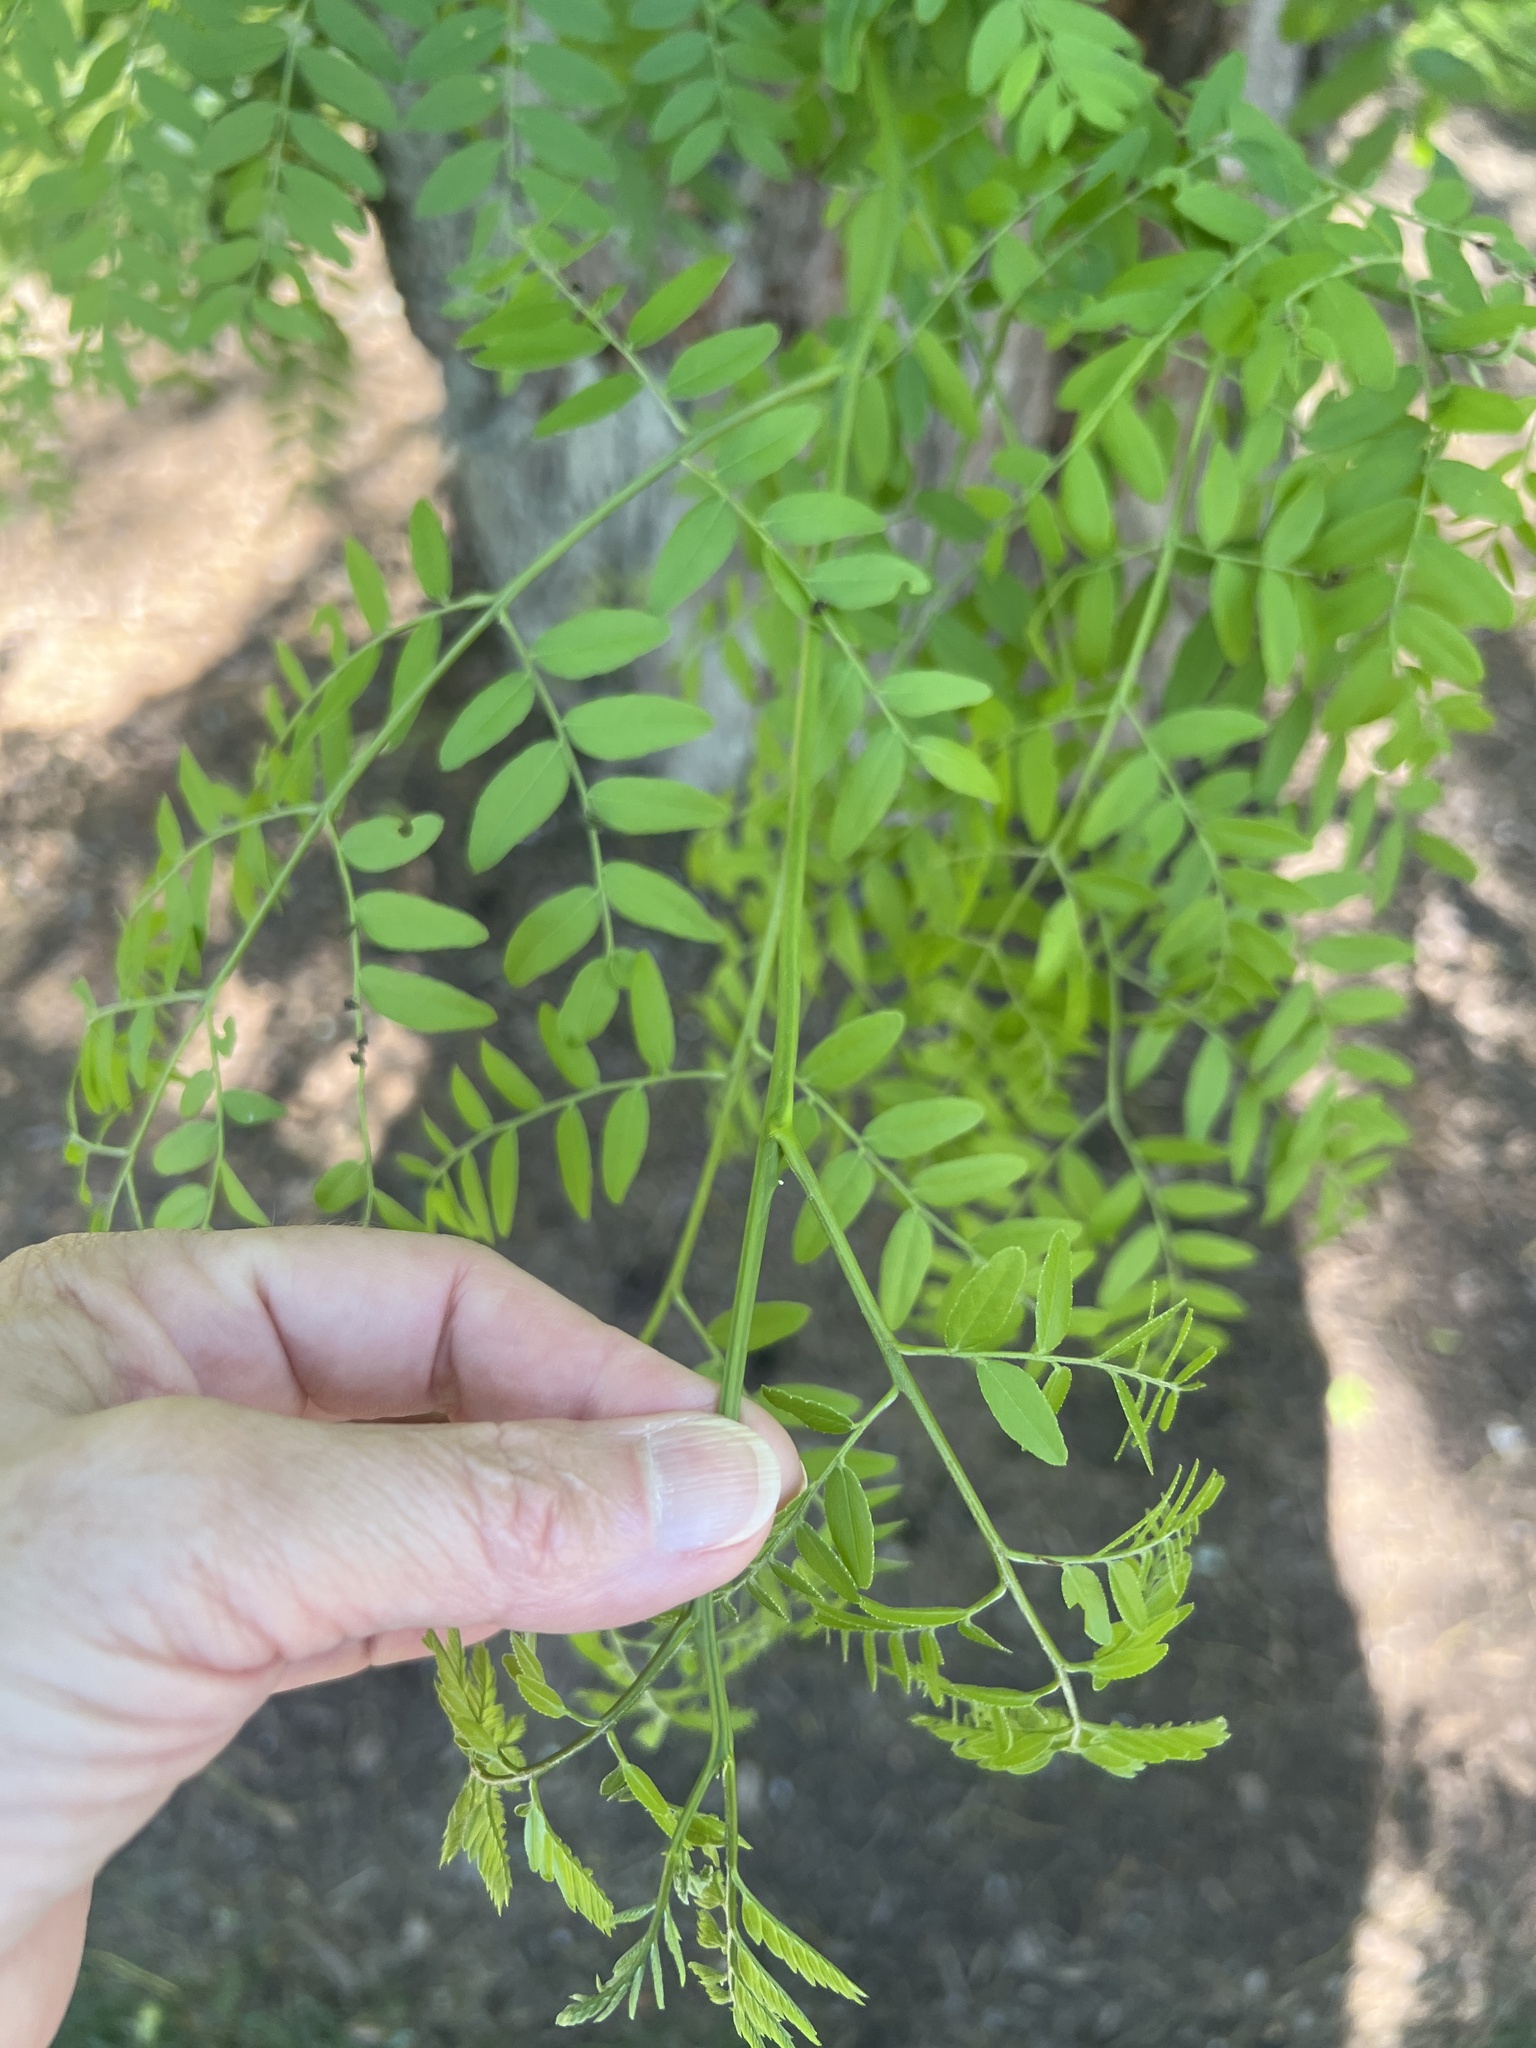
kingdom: Plantae
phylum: Tracheophyta
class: Magnoliopsida
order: Fabales
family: Fabaceae
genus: Gleditsia
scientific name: Gleditsia triacanthos
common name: Common honeylocust
